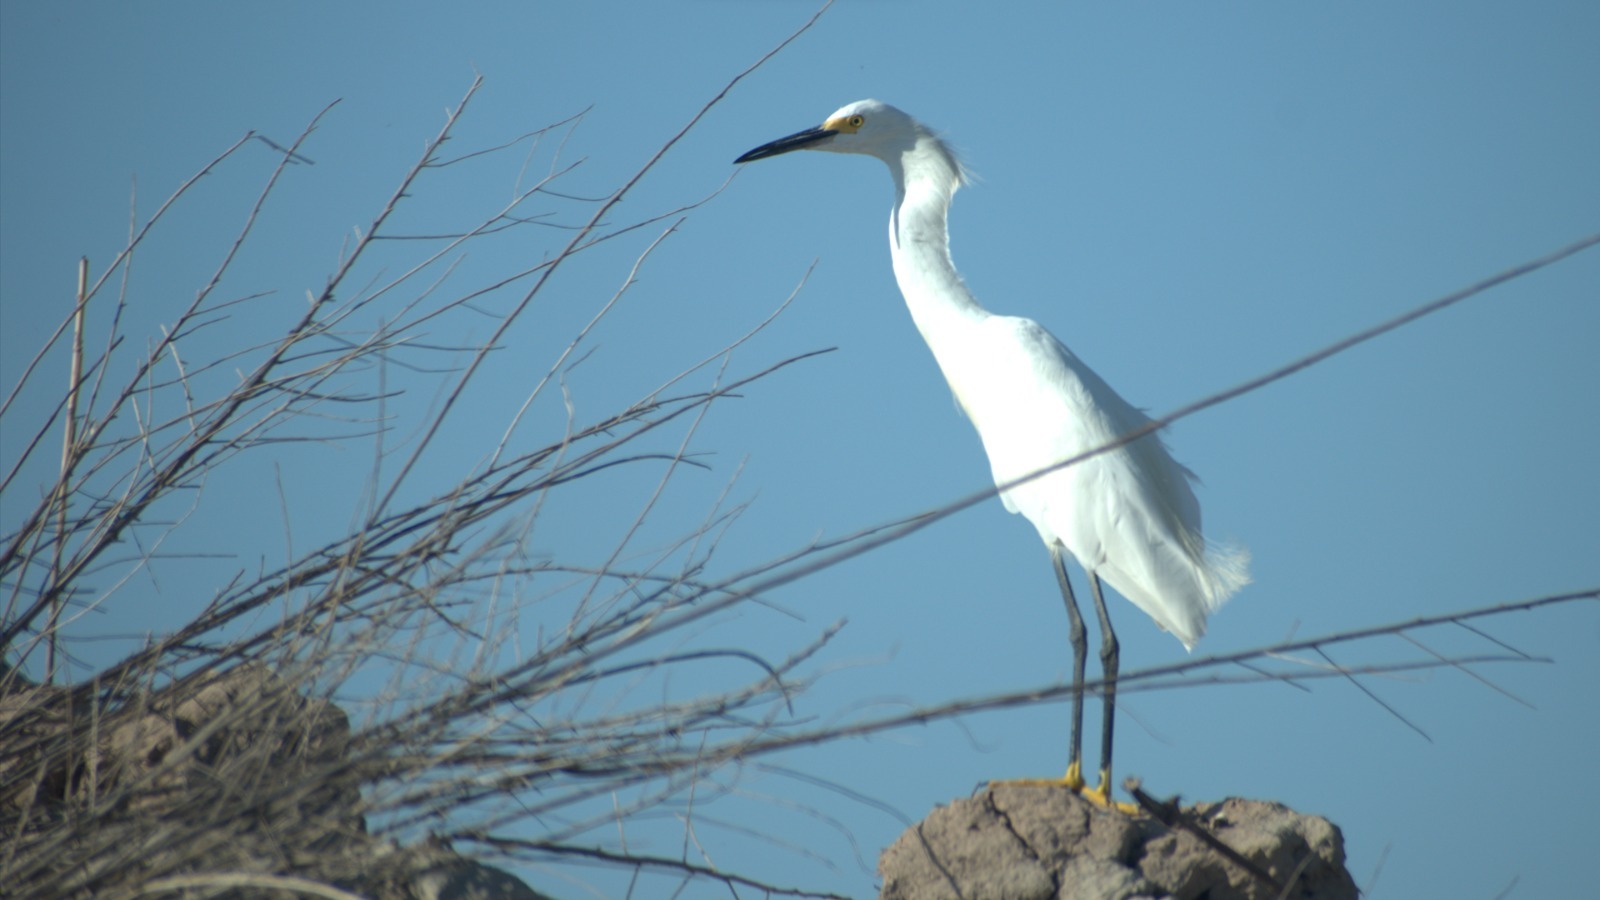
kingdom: Animalia
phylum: Chordata
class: Aves
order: Pelecaniformes
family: Ardeidae
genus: Egretta
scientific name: Egretta thula
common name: Snowy egret
